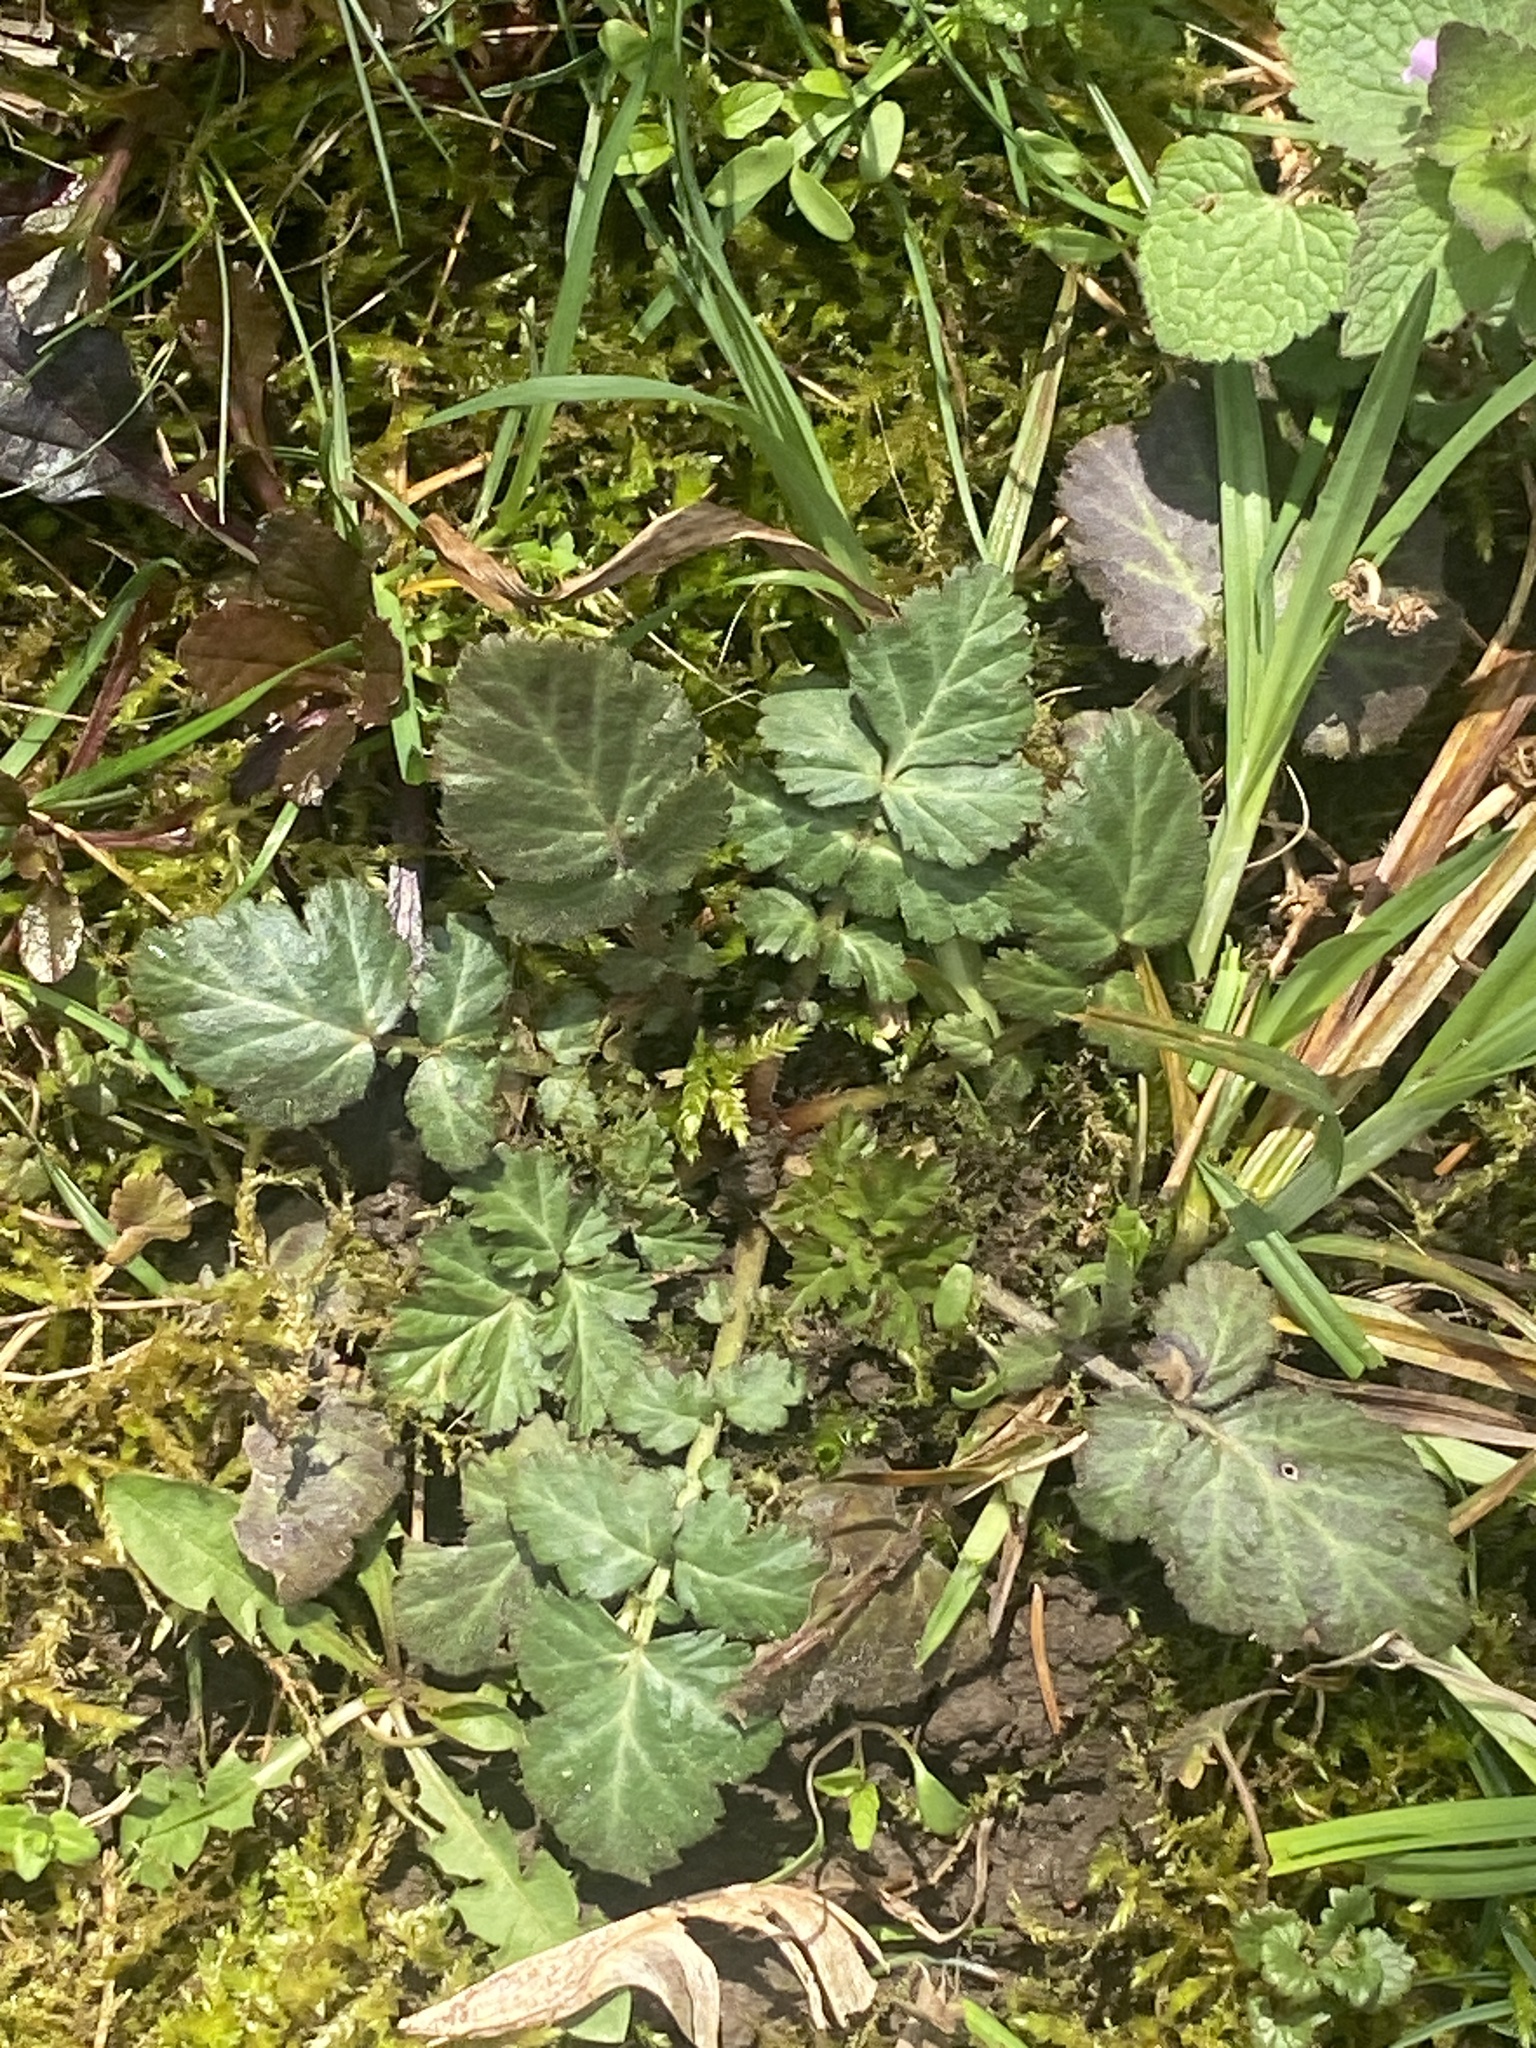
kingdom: Plantae
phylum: Tracheophyta
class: Magnoliopsida
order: Rosales
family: Rosaceae
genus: Geum
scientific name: Geum canadense
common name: White avens
